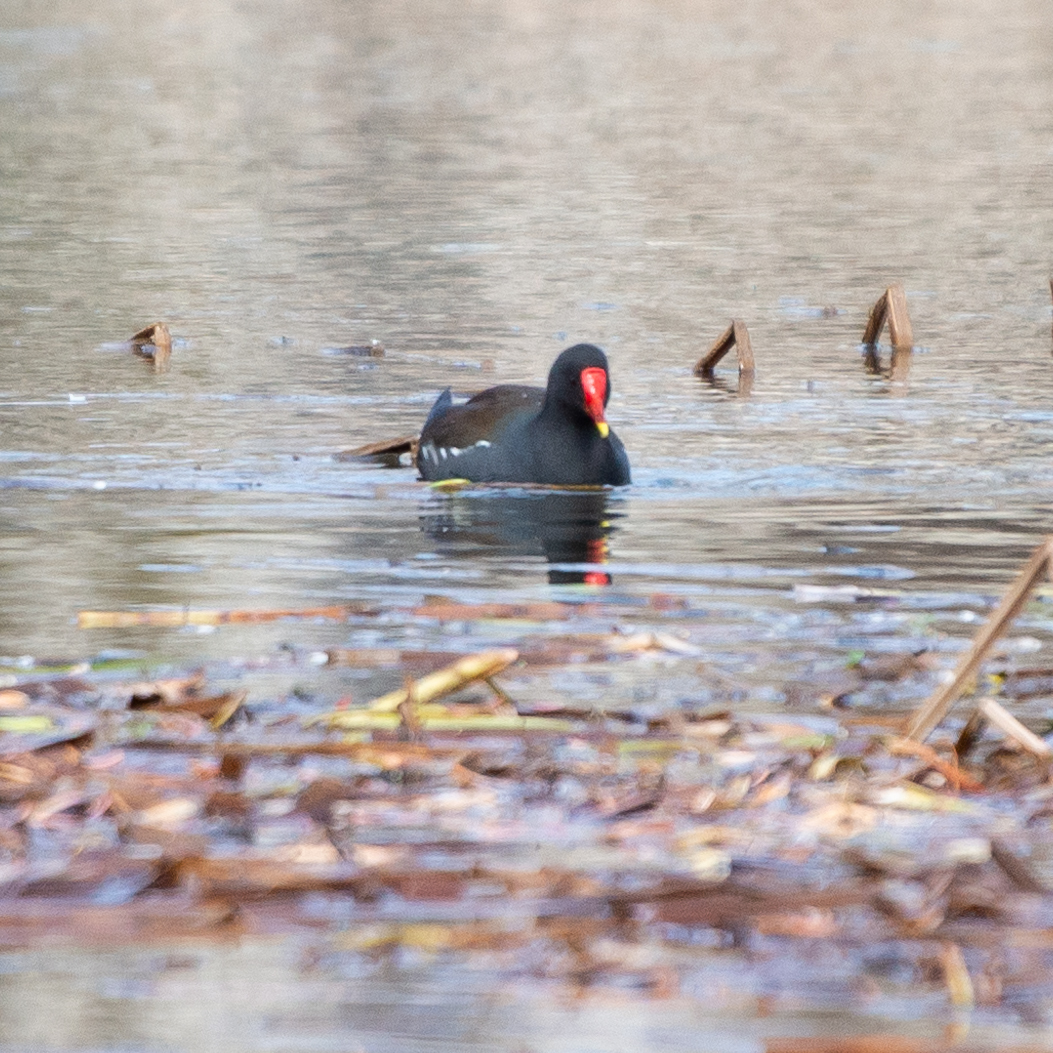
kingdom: Animalia
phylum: Chordata
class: Aves
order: Gruiformes
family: Rallidae
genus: Gallinula
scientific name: Gallinula chloropus
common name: Common moorhen
